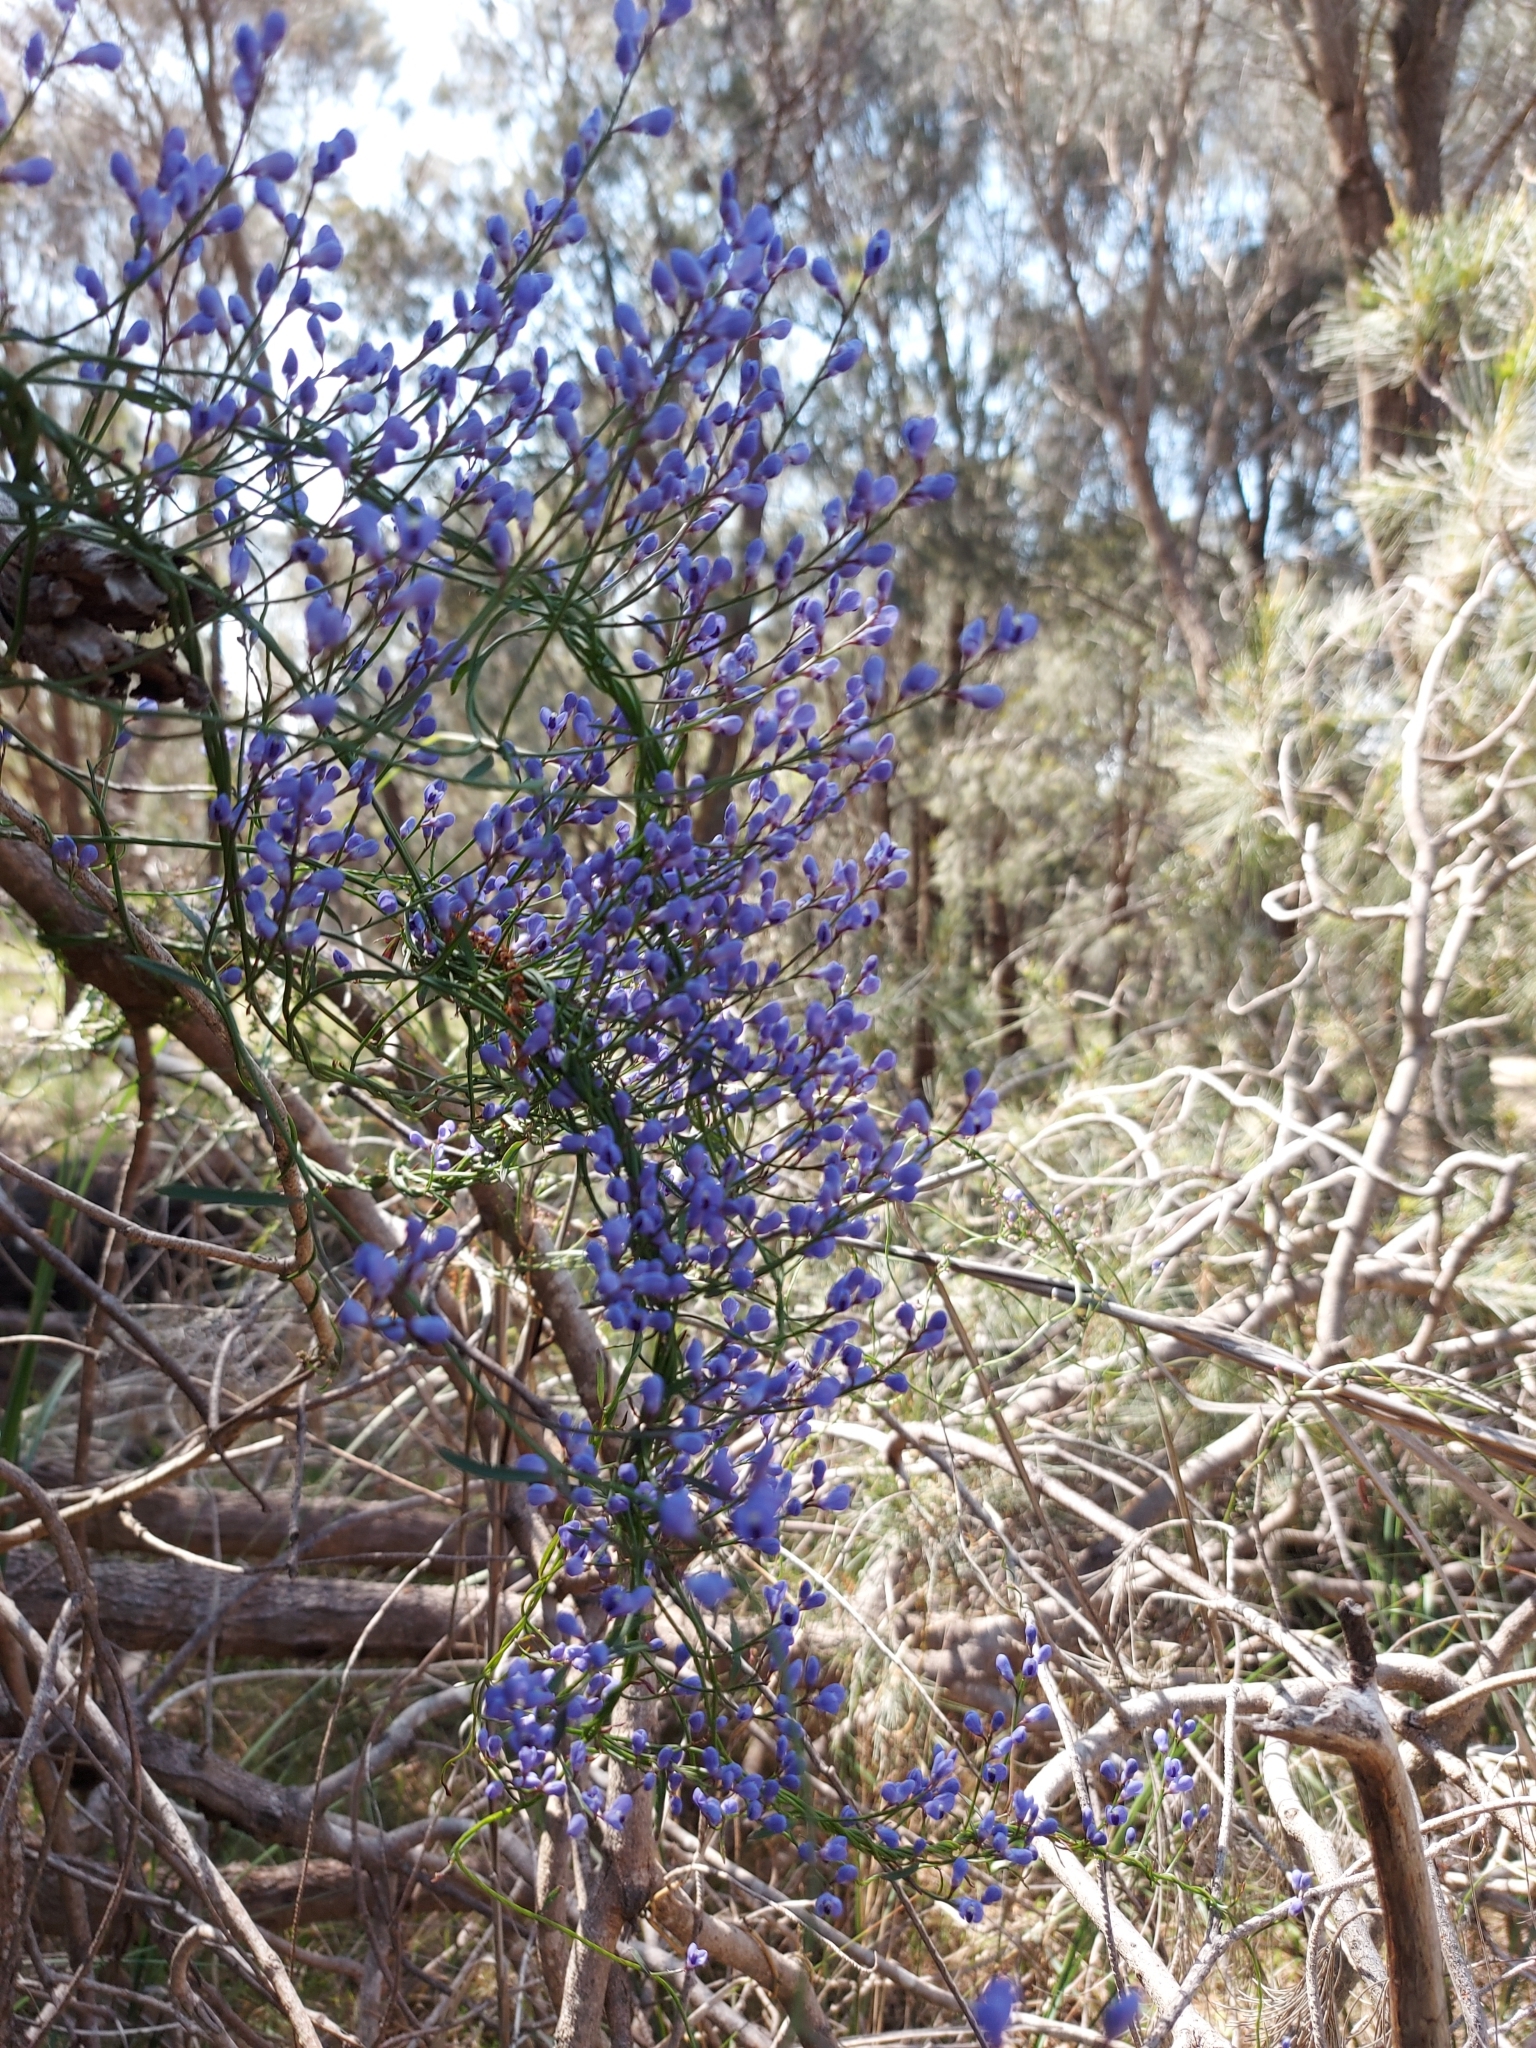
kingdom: Plantae
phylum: Tracheophyta
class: Magnoliopsida
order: Fabales
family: Polygalaceae
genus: Comesperma
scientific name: Comesperma volubile
